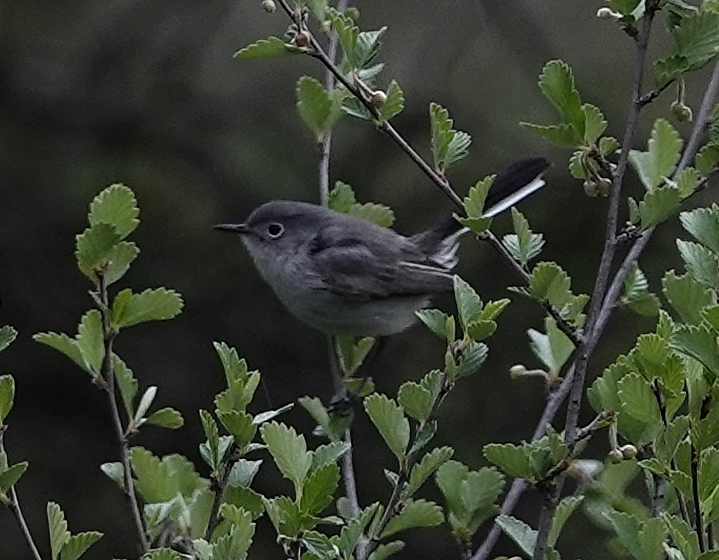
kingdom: Animalia
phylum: Chordata
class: Aves
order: Passeriformes
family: Polioptilidae
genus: Polioptila
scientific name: Polioptila caerulea
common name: Blue-gray gnatcatcher
